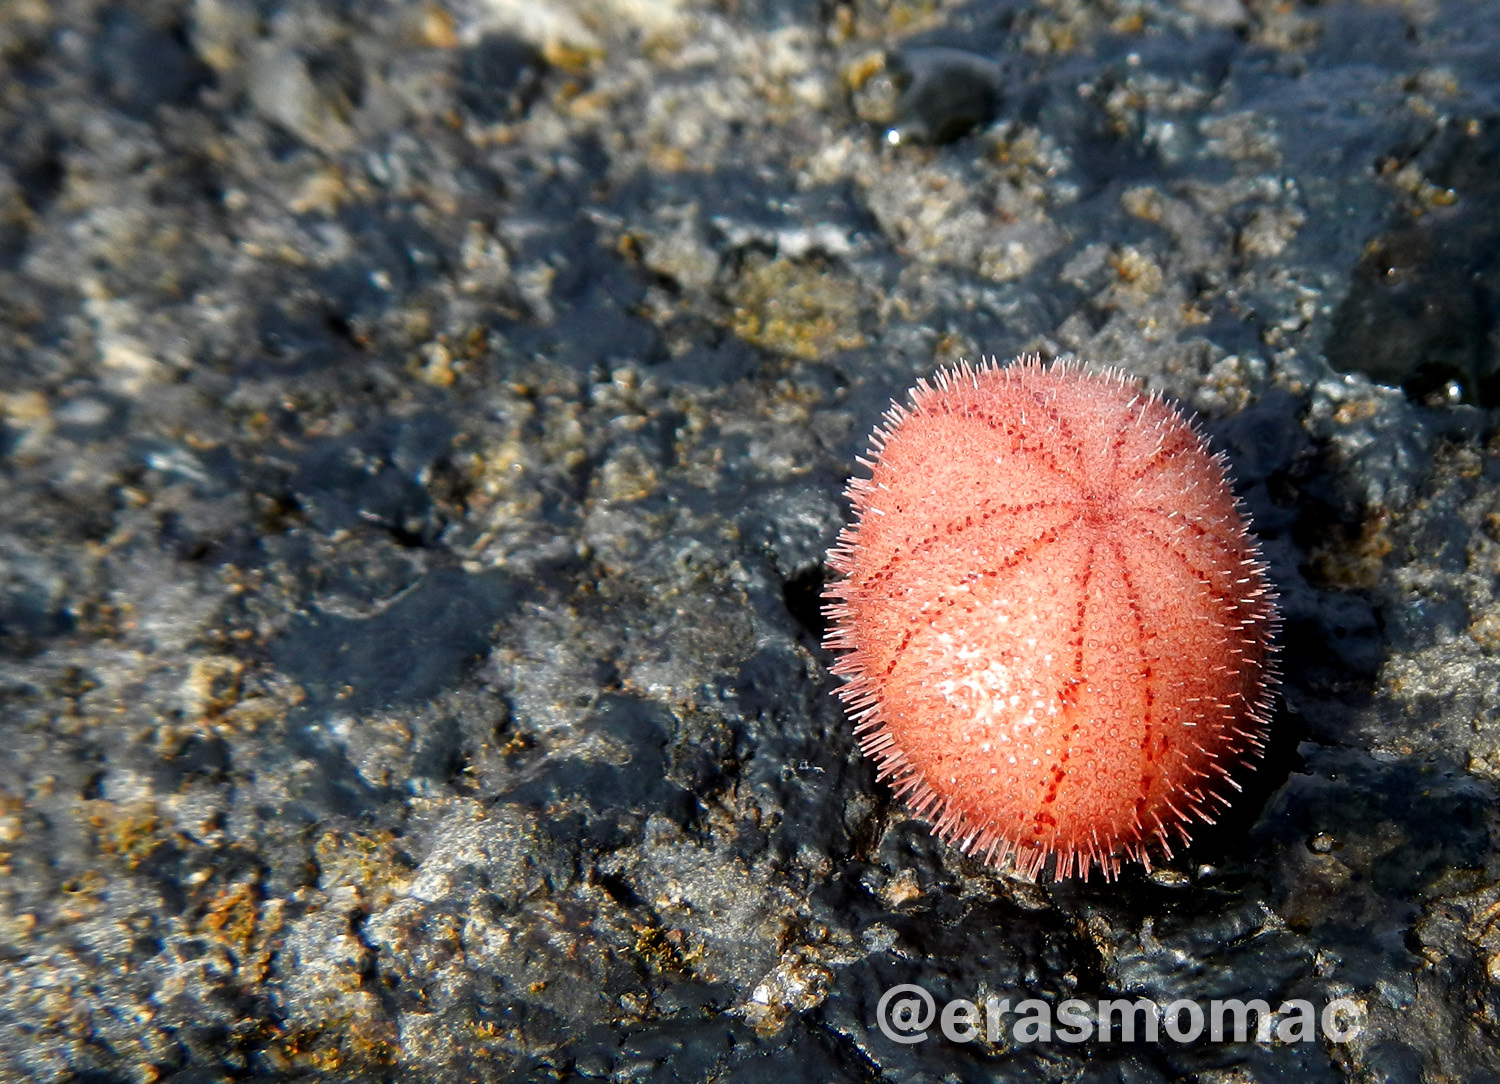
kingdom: Animalia
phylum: Echinodermata
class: Echinoidea
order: Echinoneoida
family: Echinoneidae
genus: Echinoneus
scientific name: Echinoneus cyclostomus
